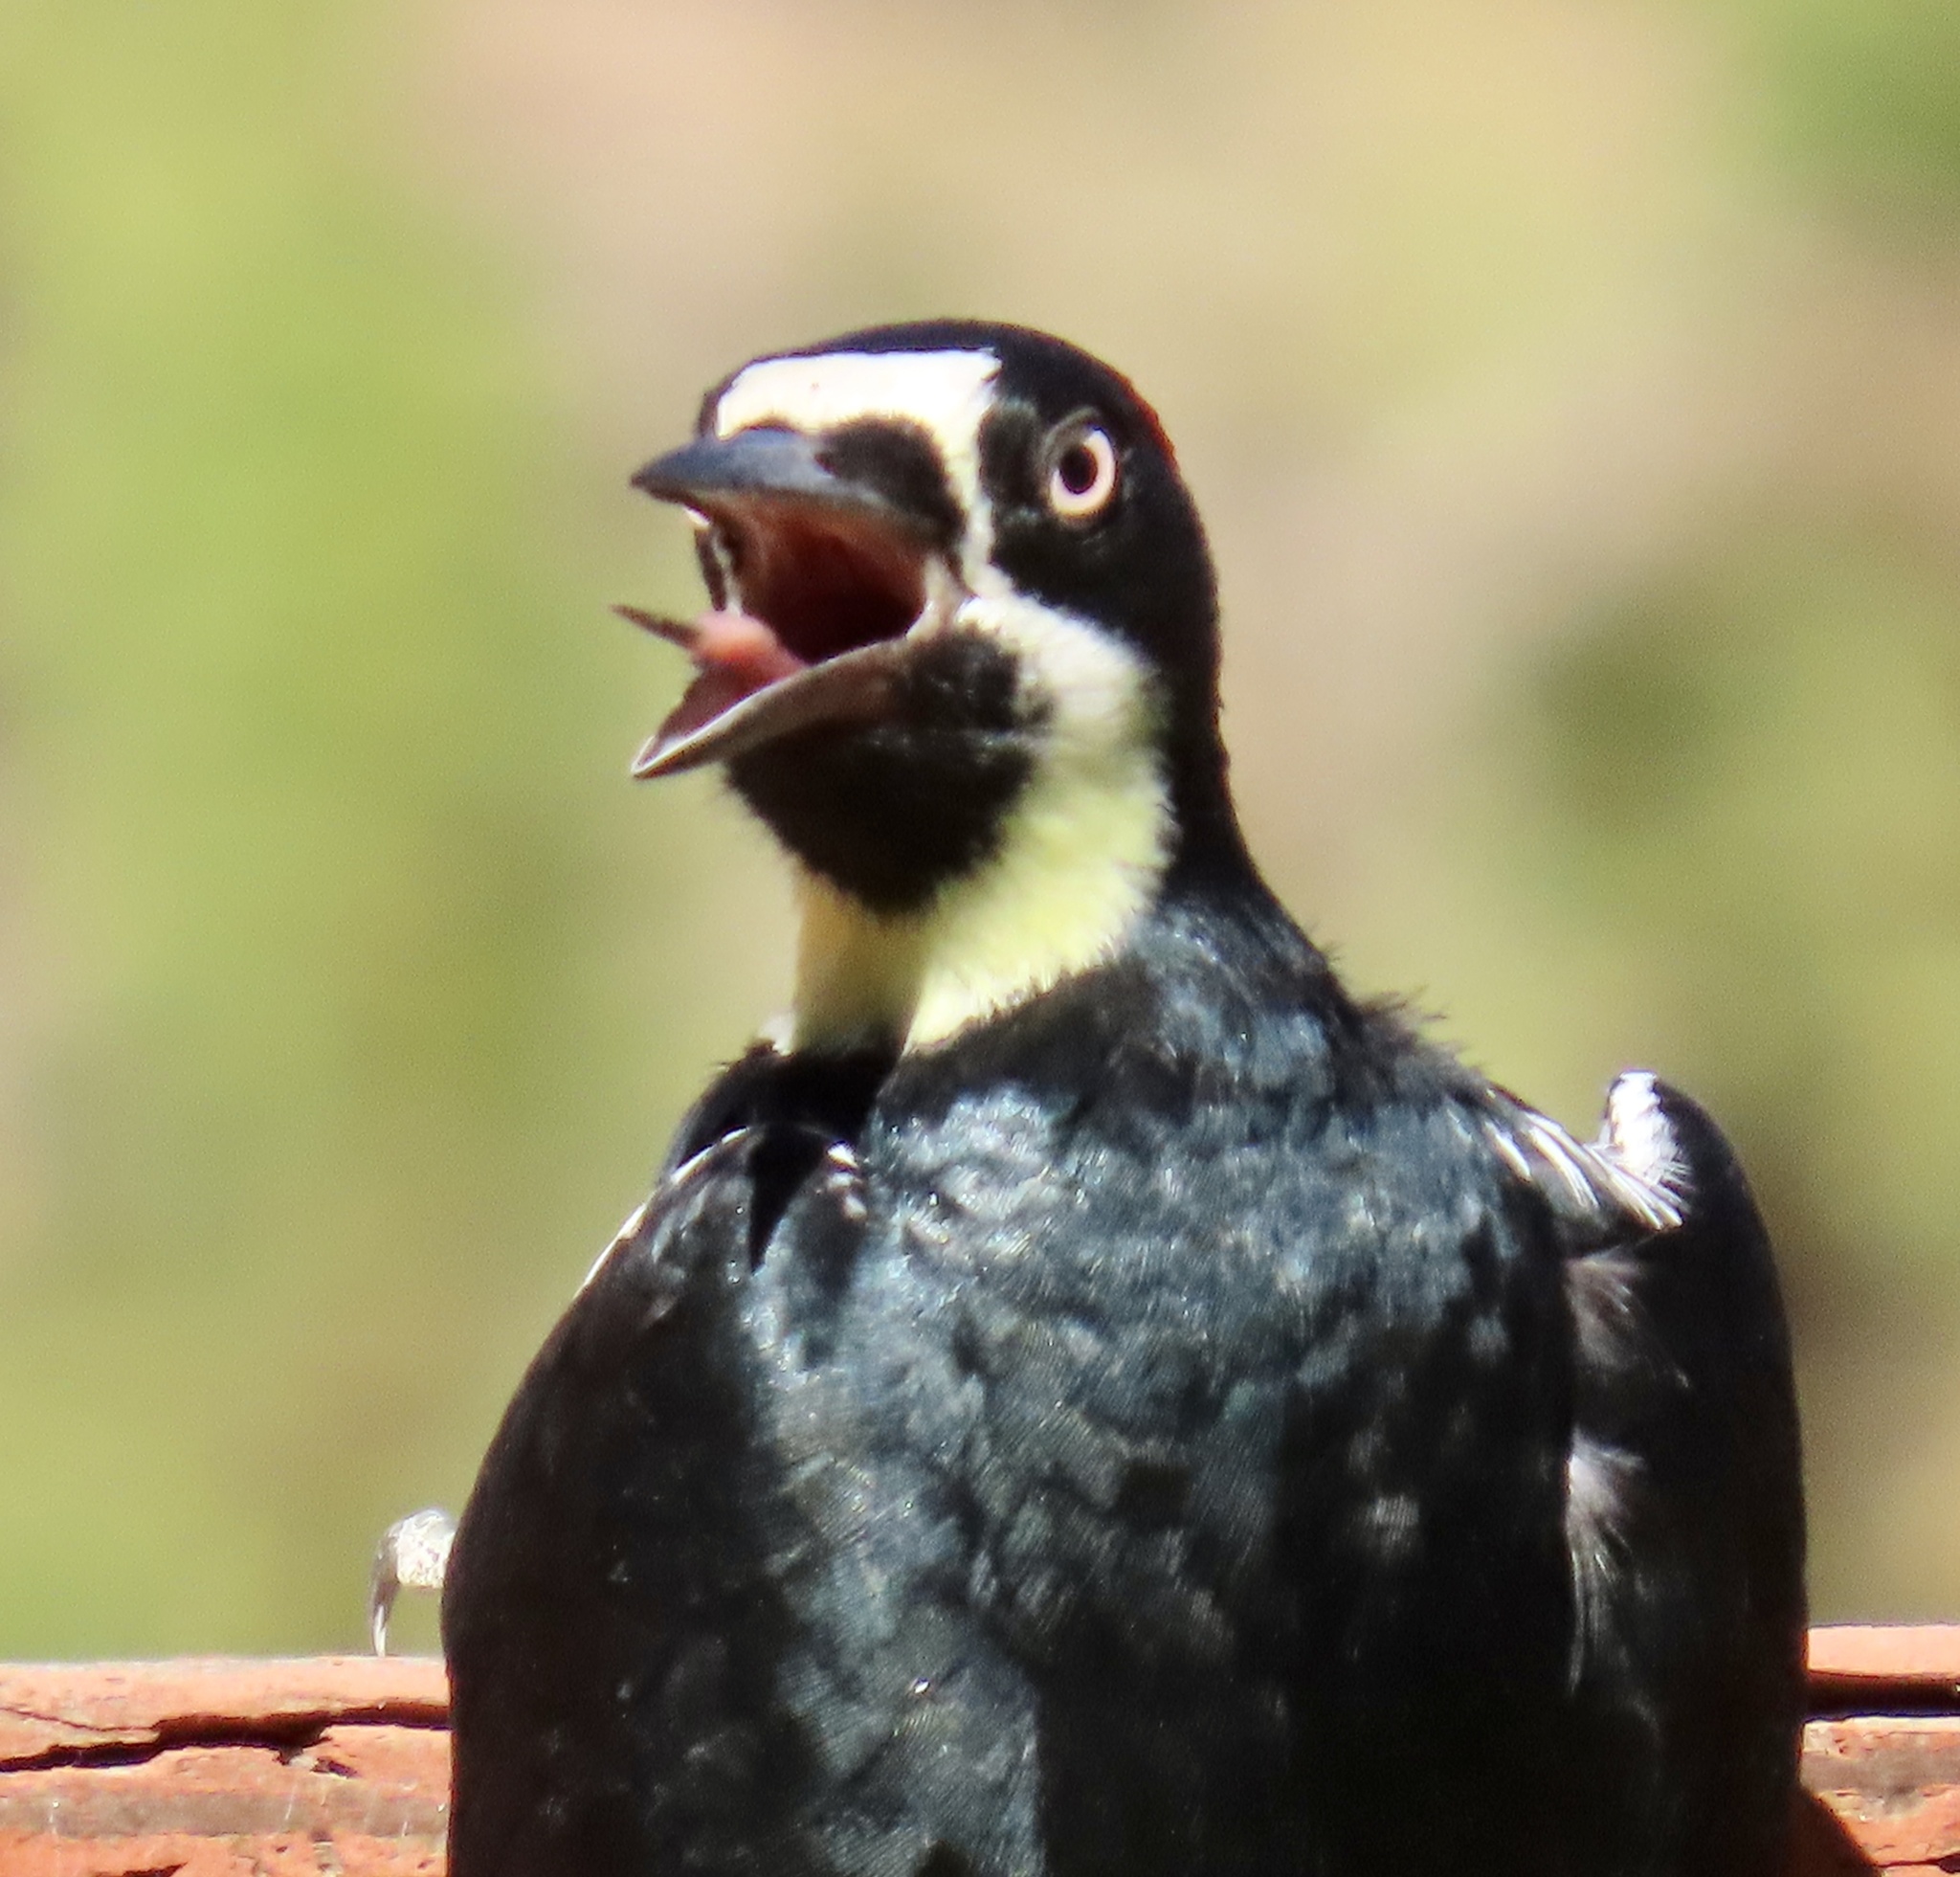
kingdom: Animalia
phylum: Chordata
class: Aves
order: Piciformes
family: Picidae
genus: Melanerpes
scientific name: Melanerpes formicivorus
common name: Acorn woodpecker
